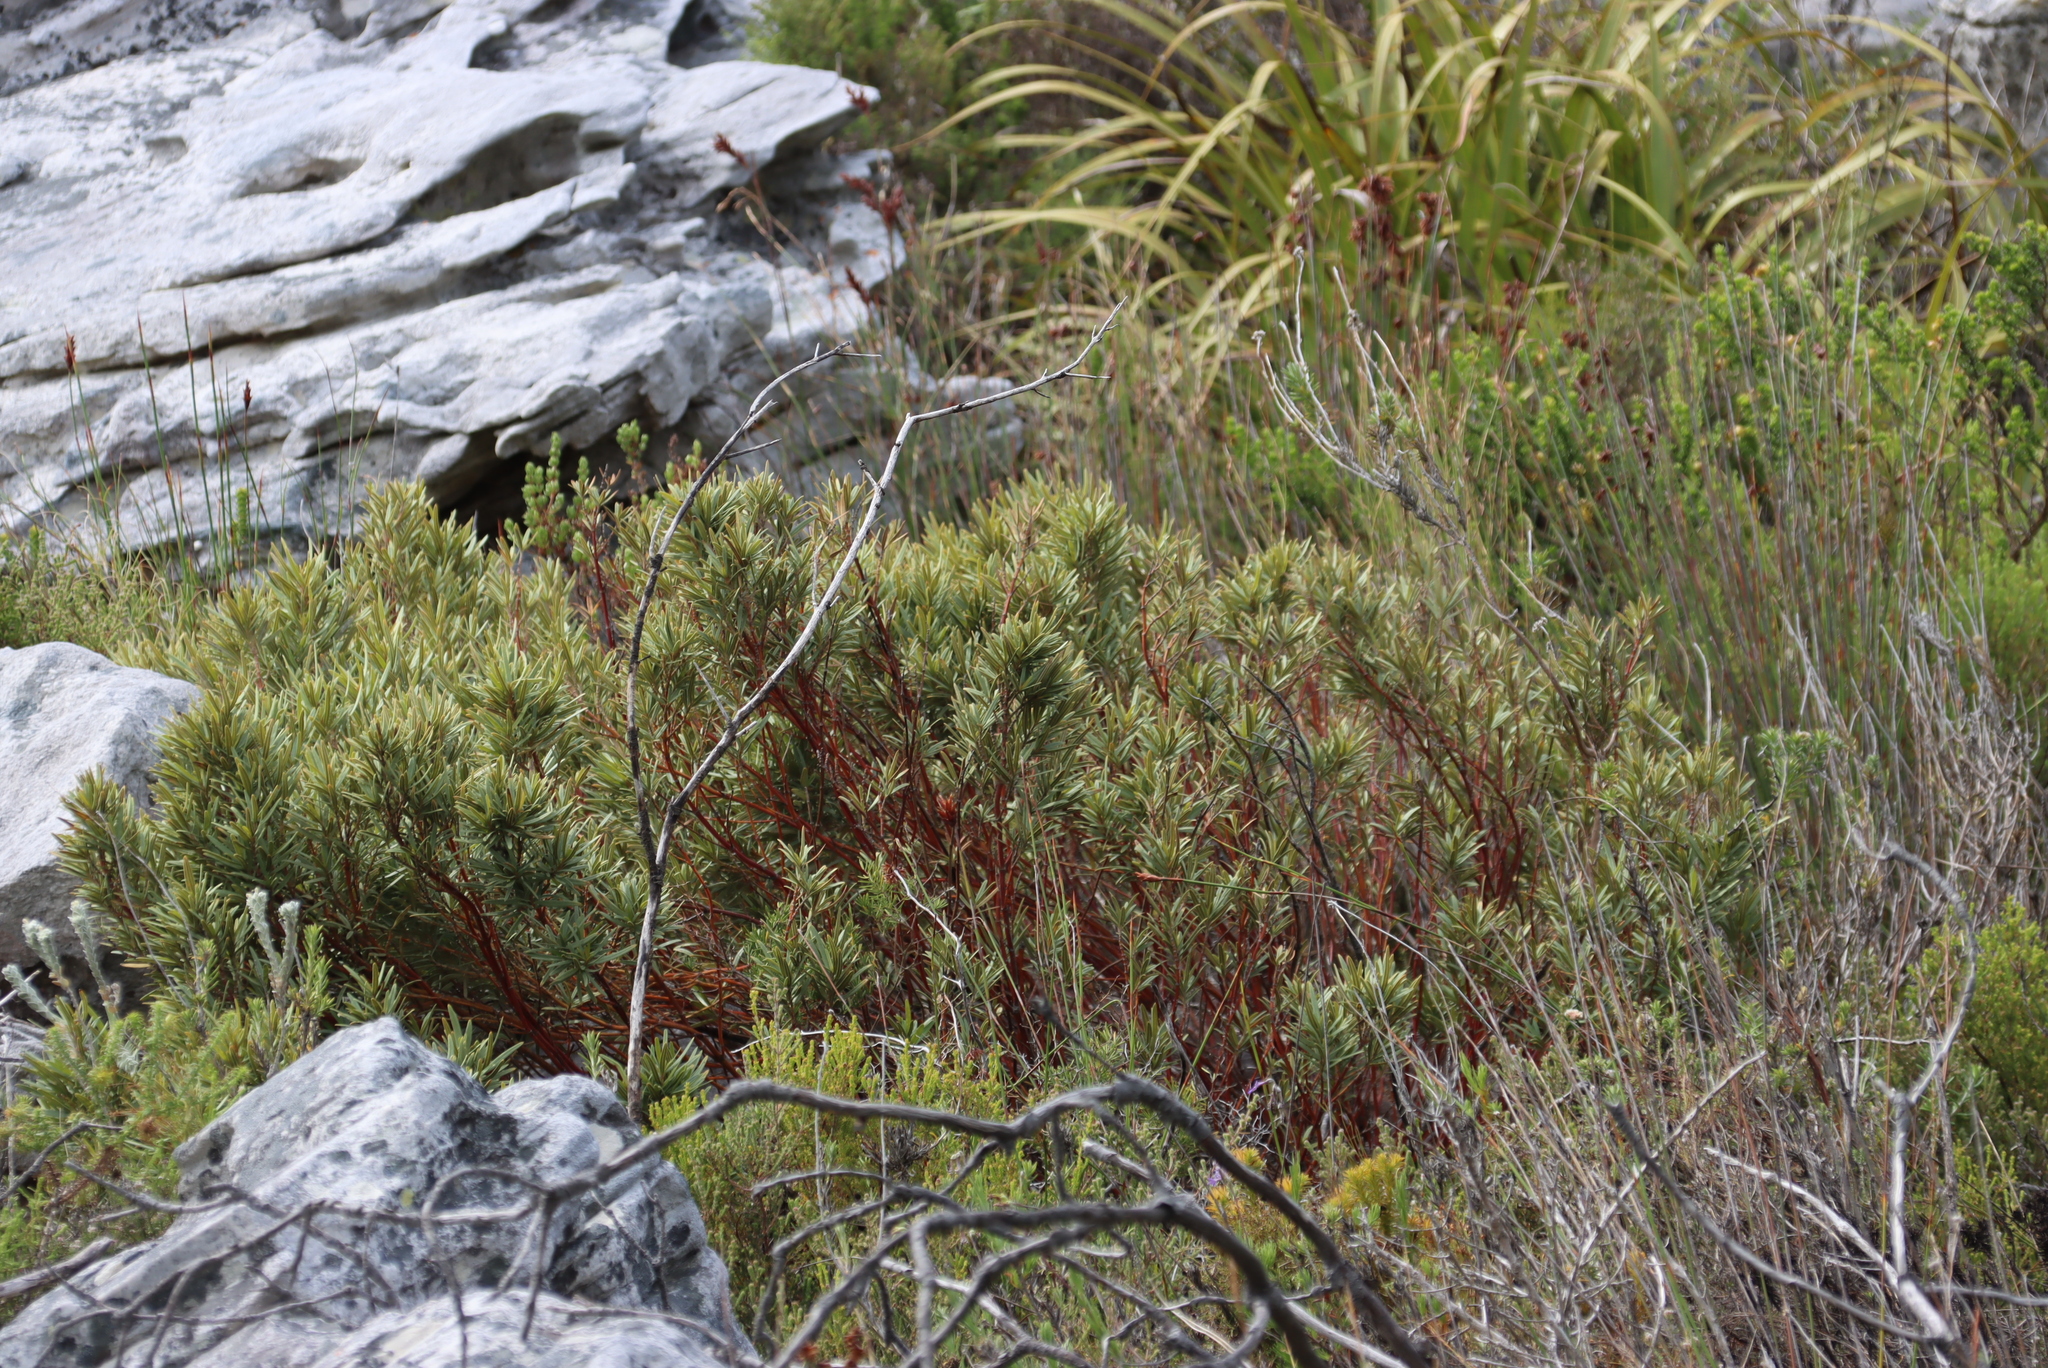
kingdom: Plantae
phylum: Tracheophyta
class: Magnoliopsida
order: Cornales
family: Grubbiaceae
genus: Grubbia
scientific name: Grubbia tomentosa
